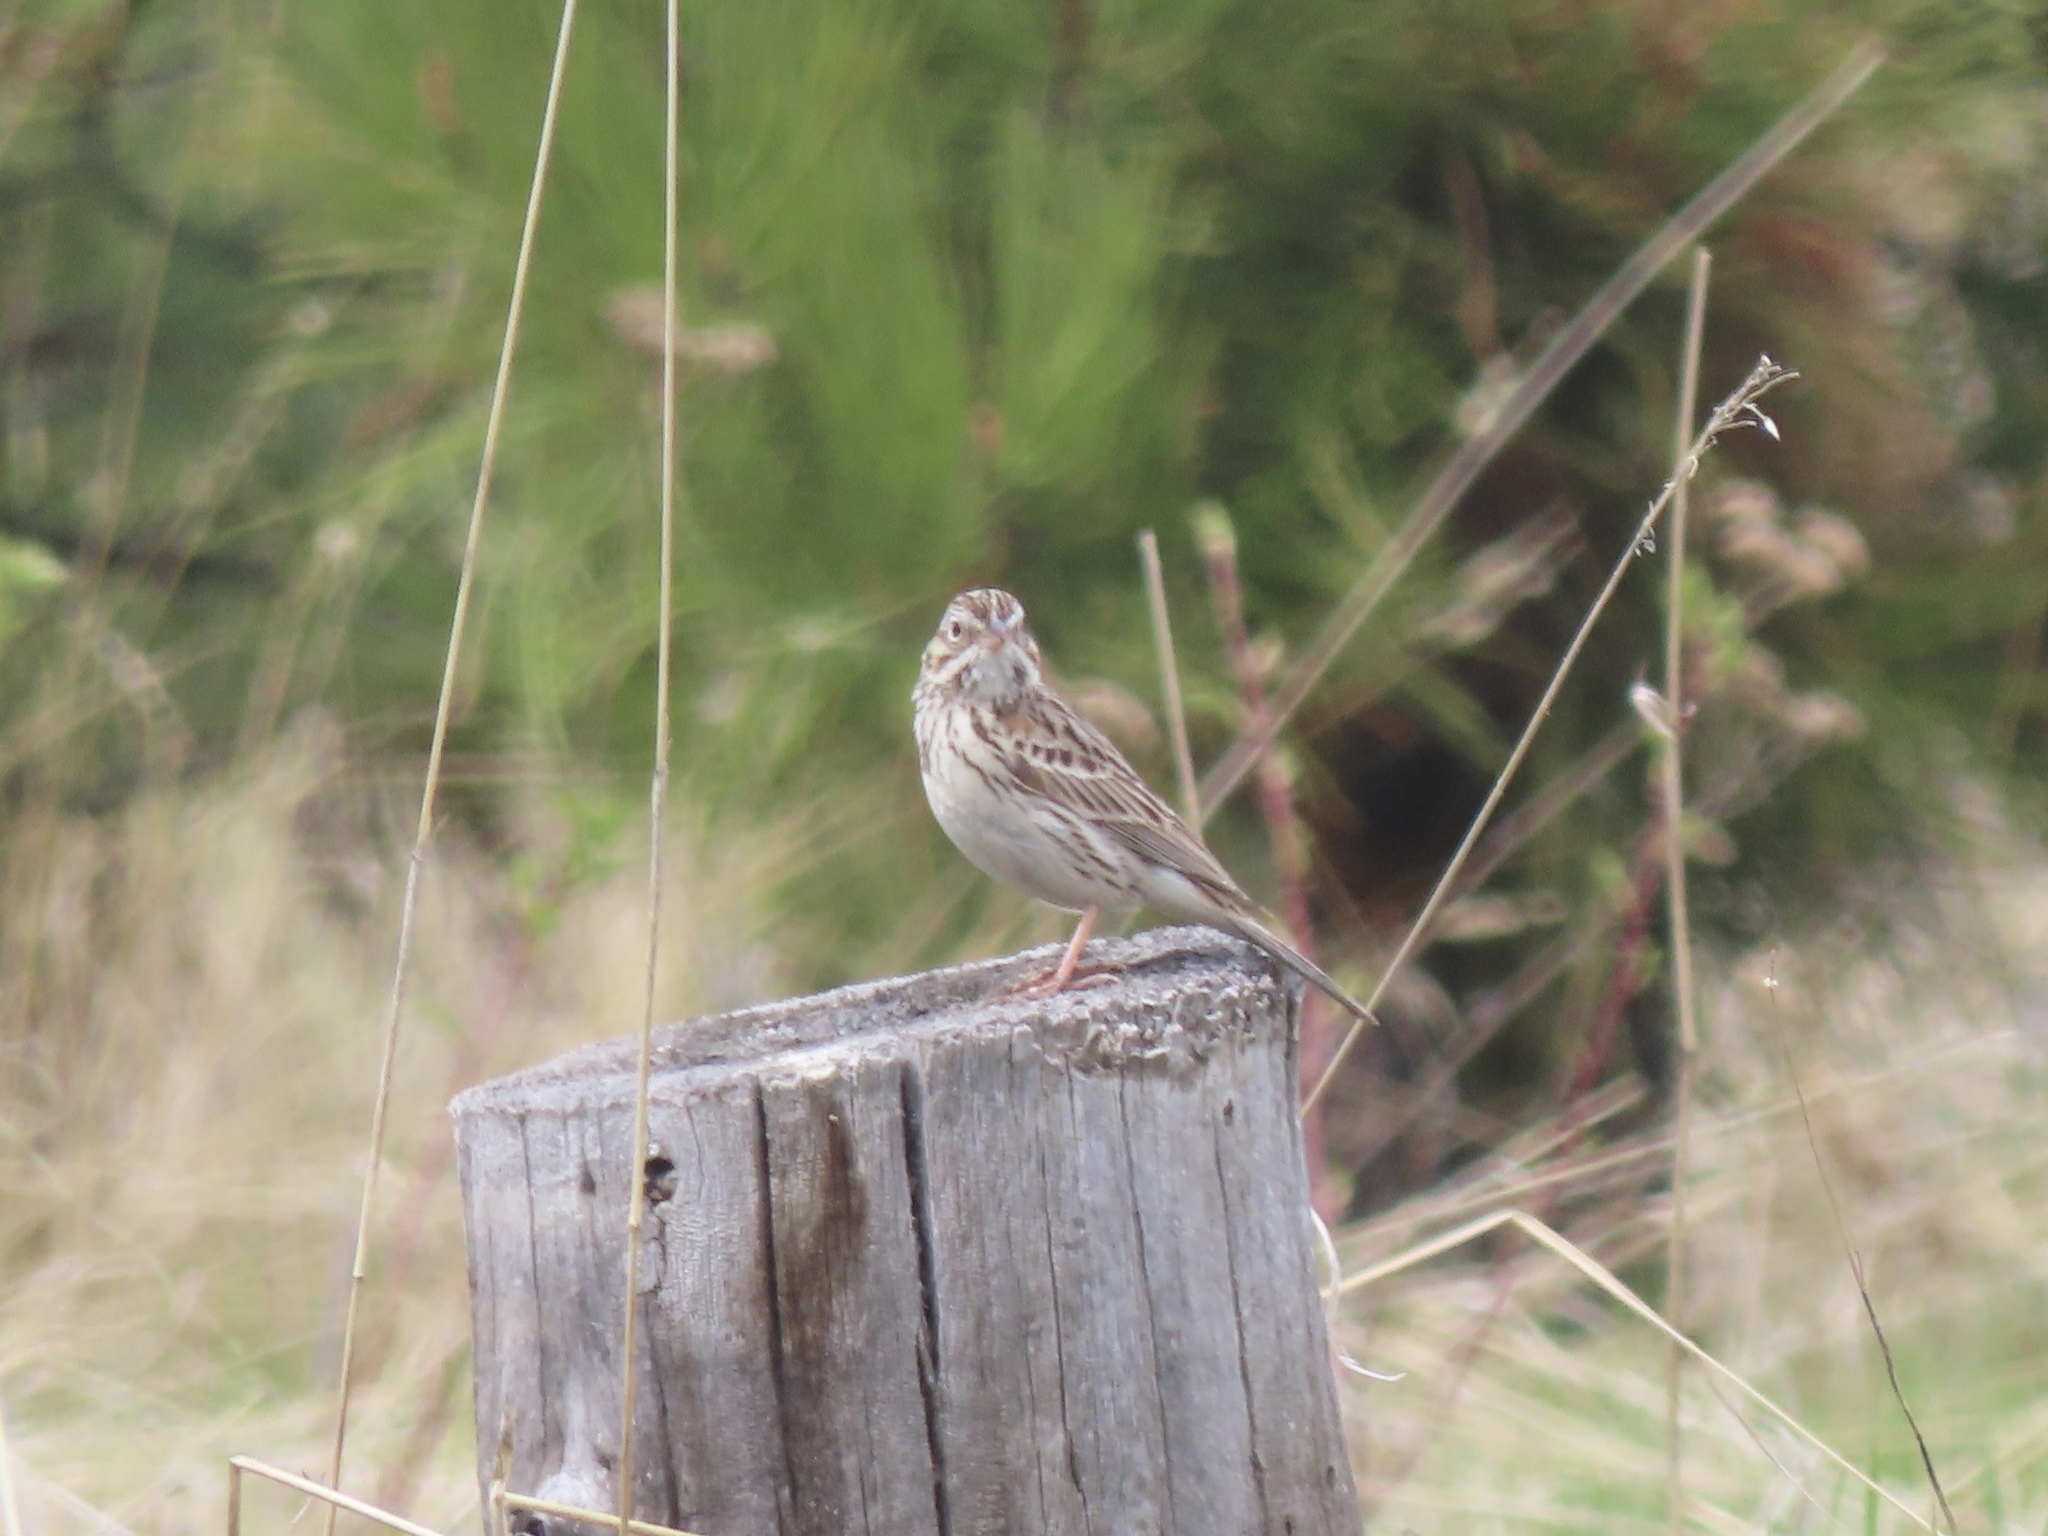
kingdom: Animalia
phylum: Chordata
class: Aves
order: Passeriformes
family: Passerellidae
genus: Pooecetes
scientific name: Pooecetes gramineus
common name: Vesper sparrow
